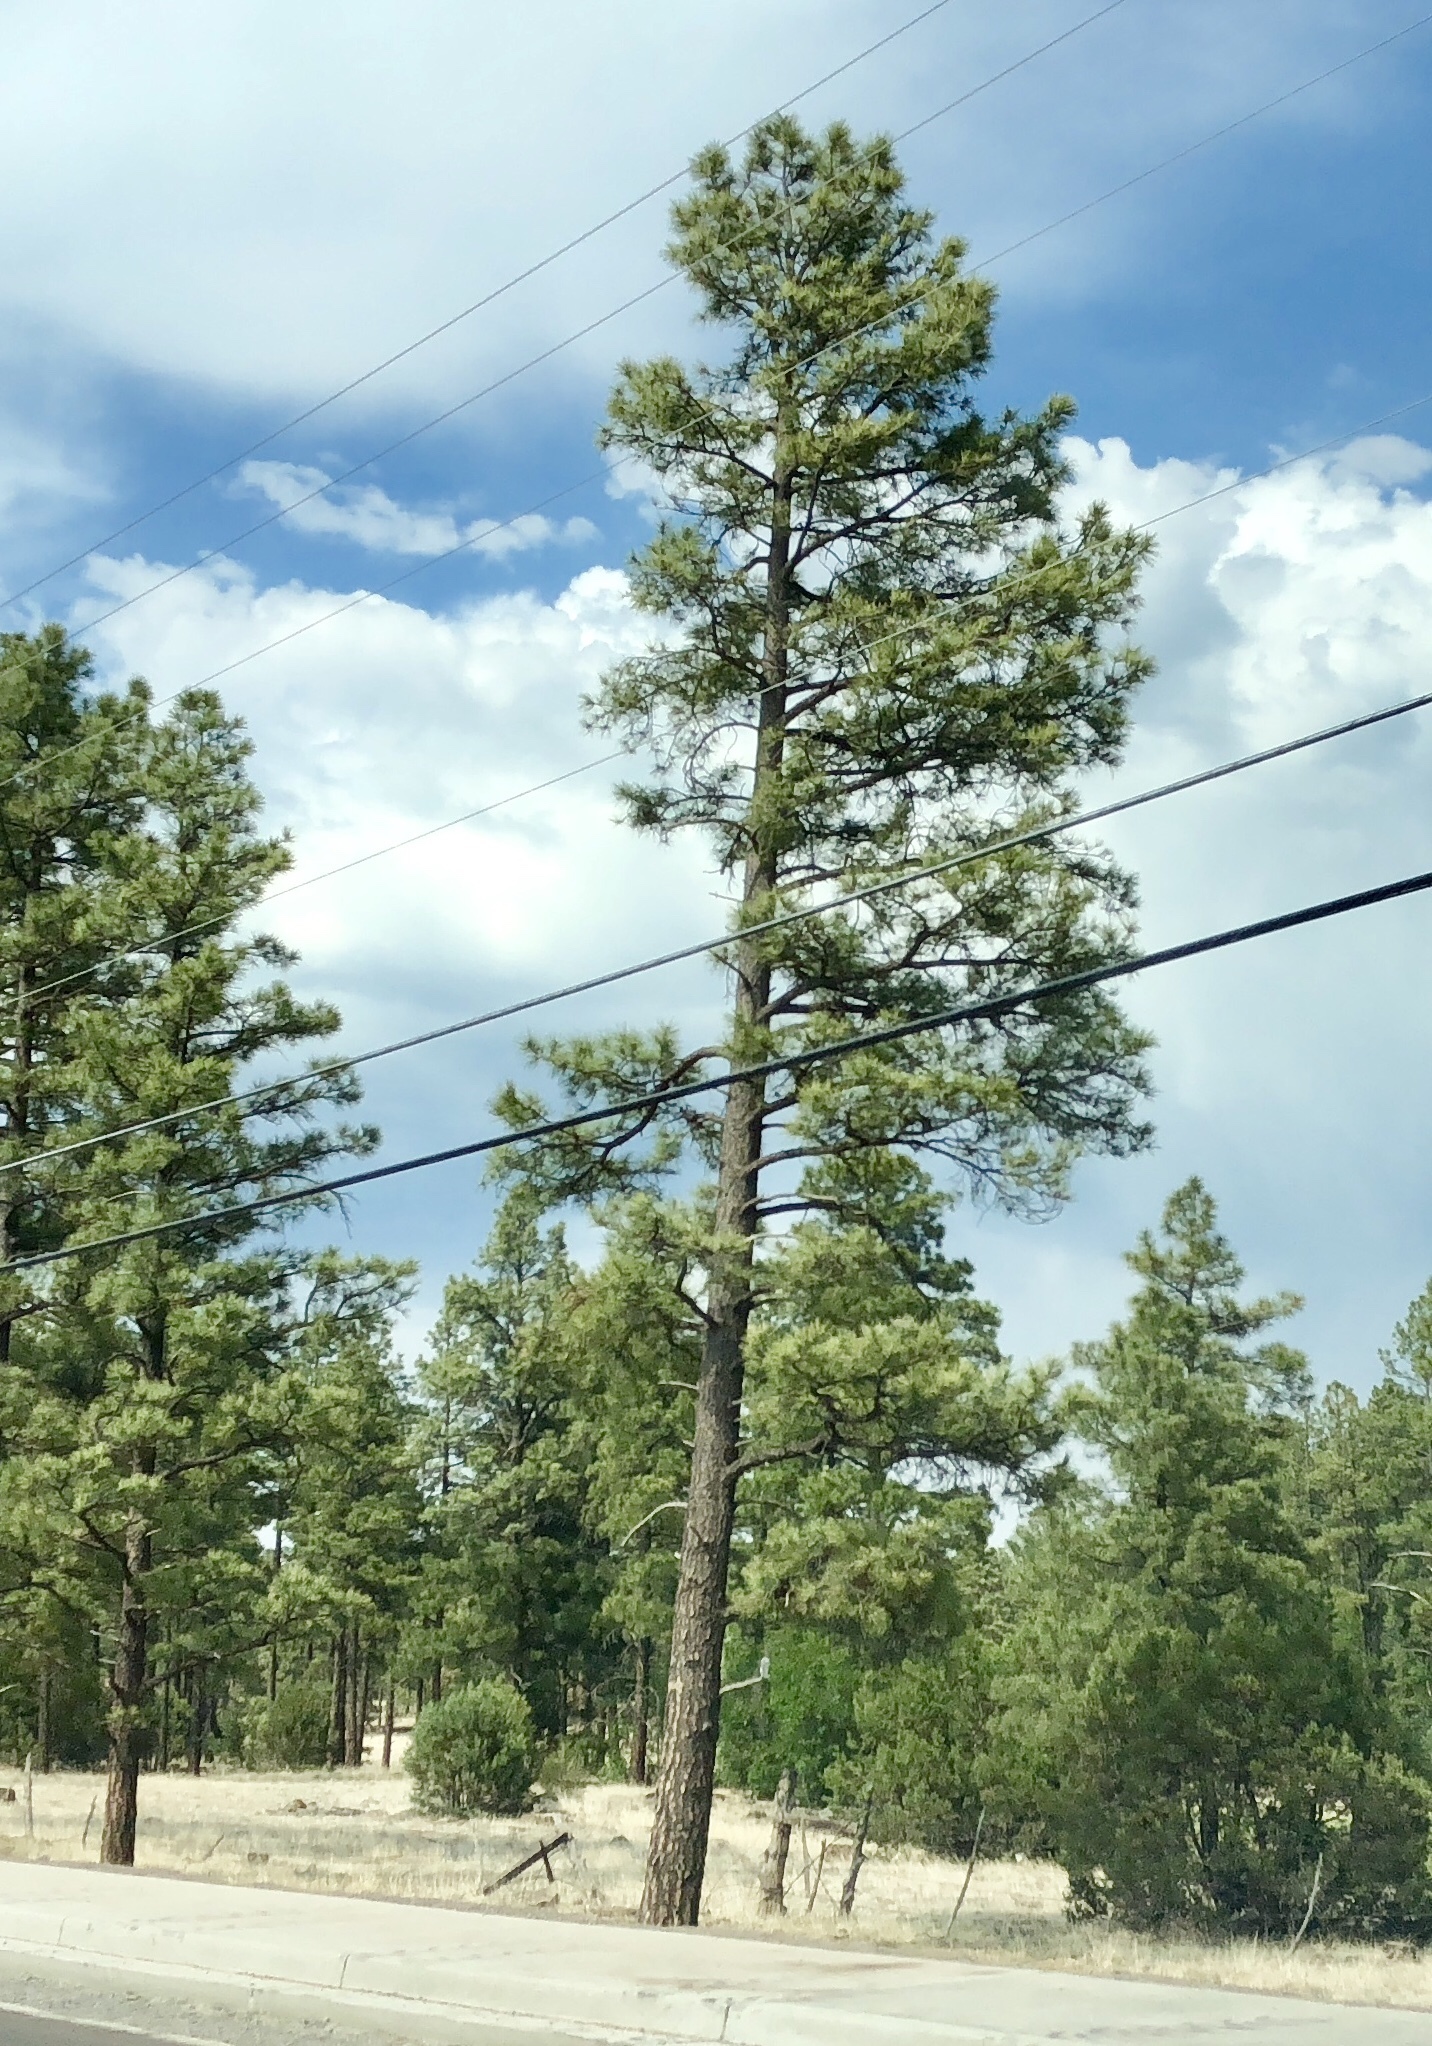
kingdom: Plantae
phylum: Tracheophyta
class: Pinopsida
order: Pinales
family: Pinaceae
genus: Pinus
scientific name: Pinus ponderosa
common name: Western yellow-pine
